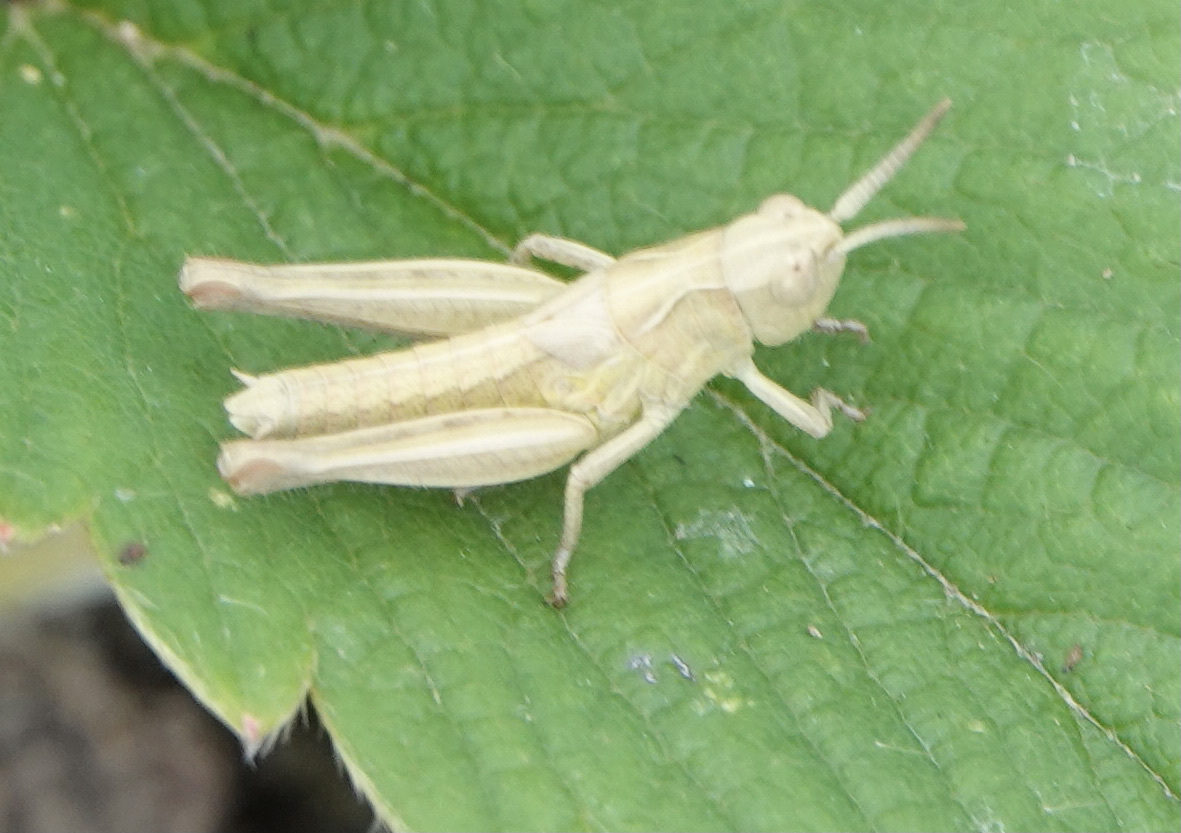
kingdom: Animalia
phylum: Arthropoda
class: Insecta
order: Orthoptera
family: Acrididae
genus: Chorthippus
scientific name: Chorthippus brunneus
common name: Field grasshopper
